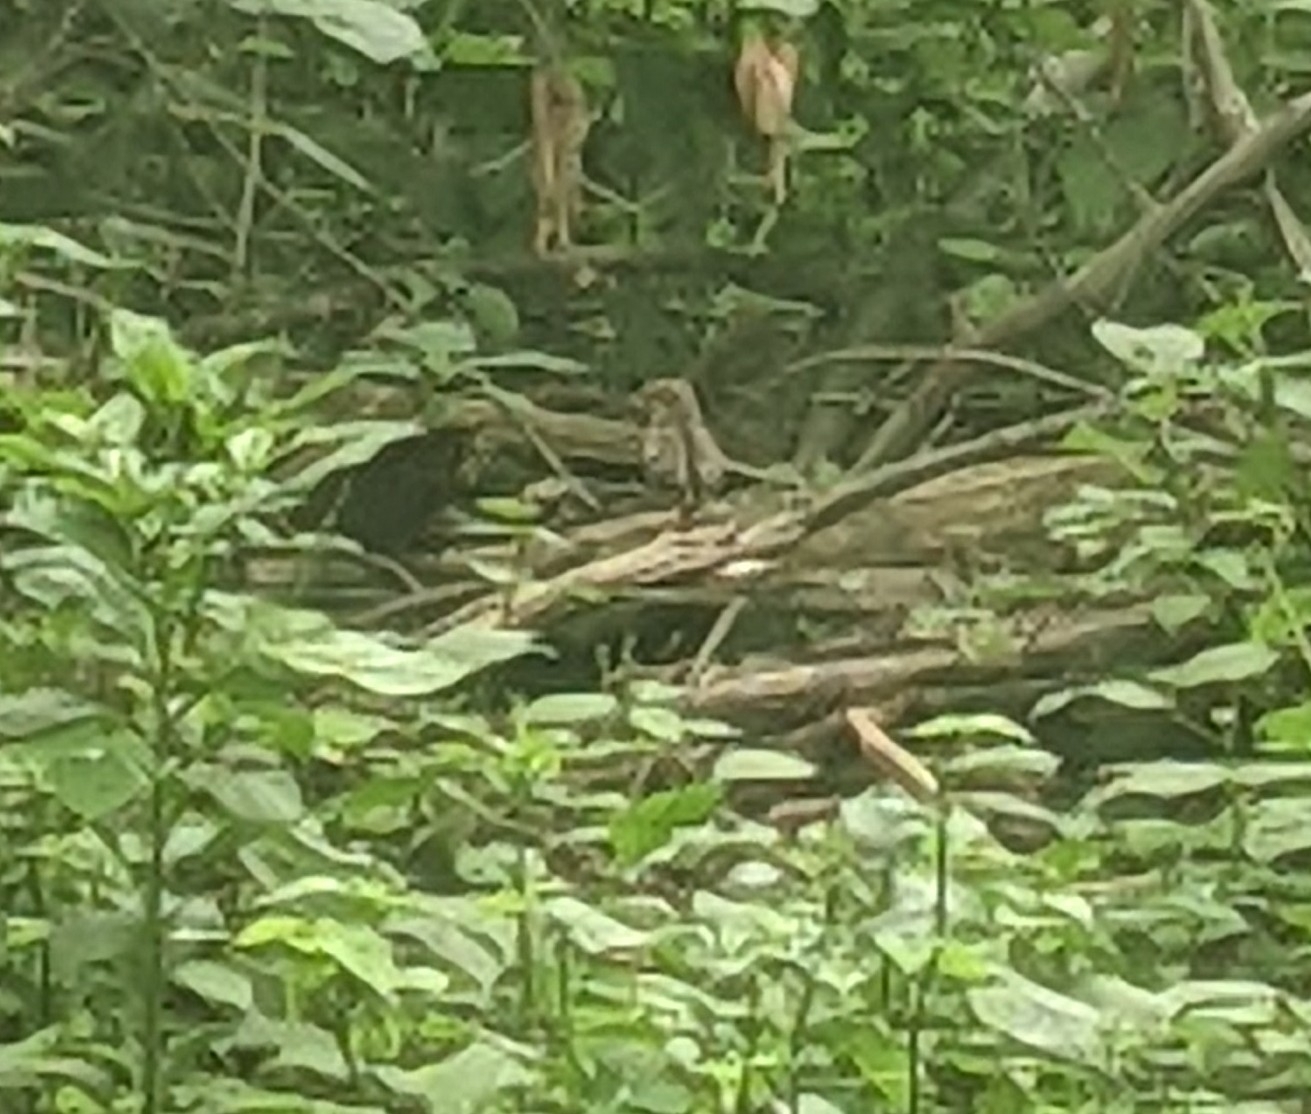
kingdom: Animalia
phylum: Chordata
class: Aves
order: Galliformes
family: Phasianidae
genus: Meleagris
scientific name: Meleagris gallopavo
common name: Wild turkey
